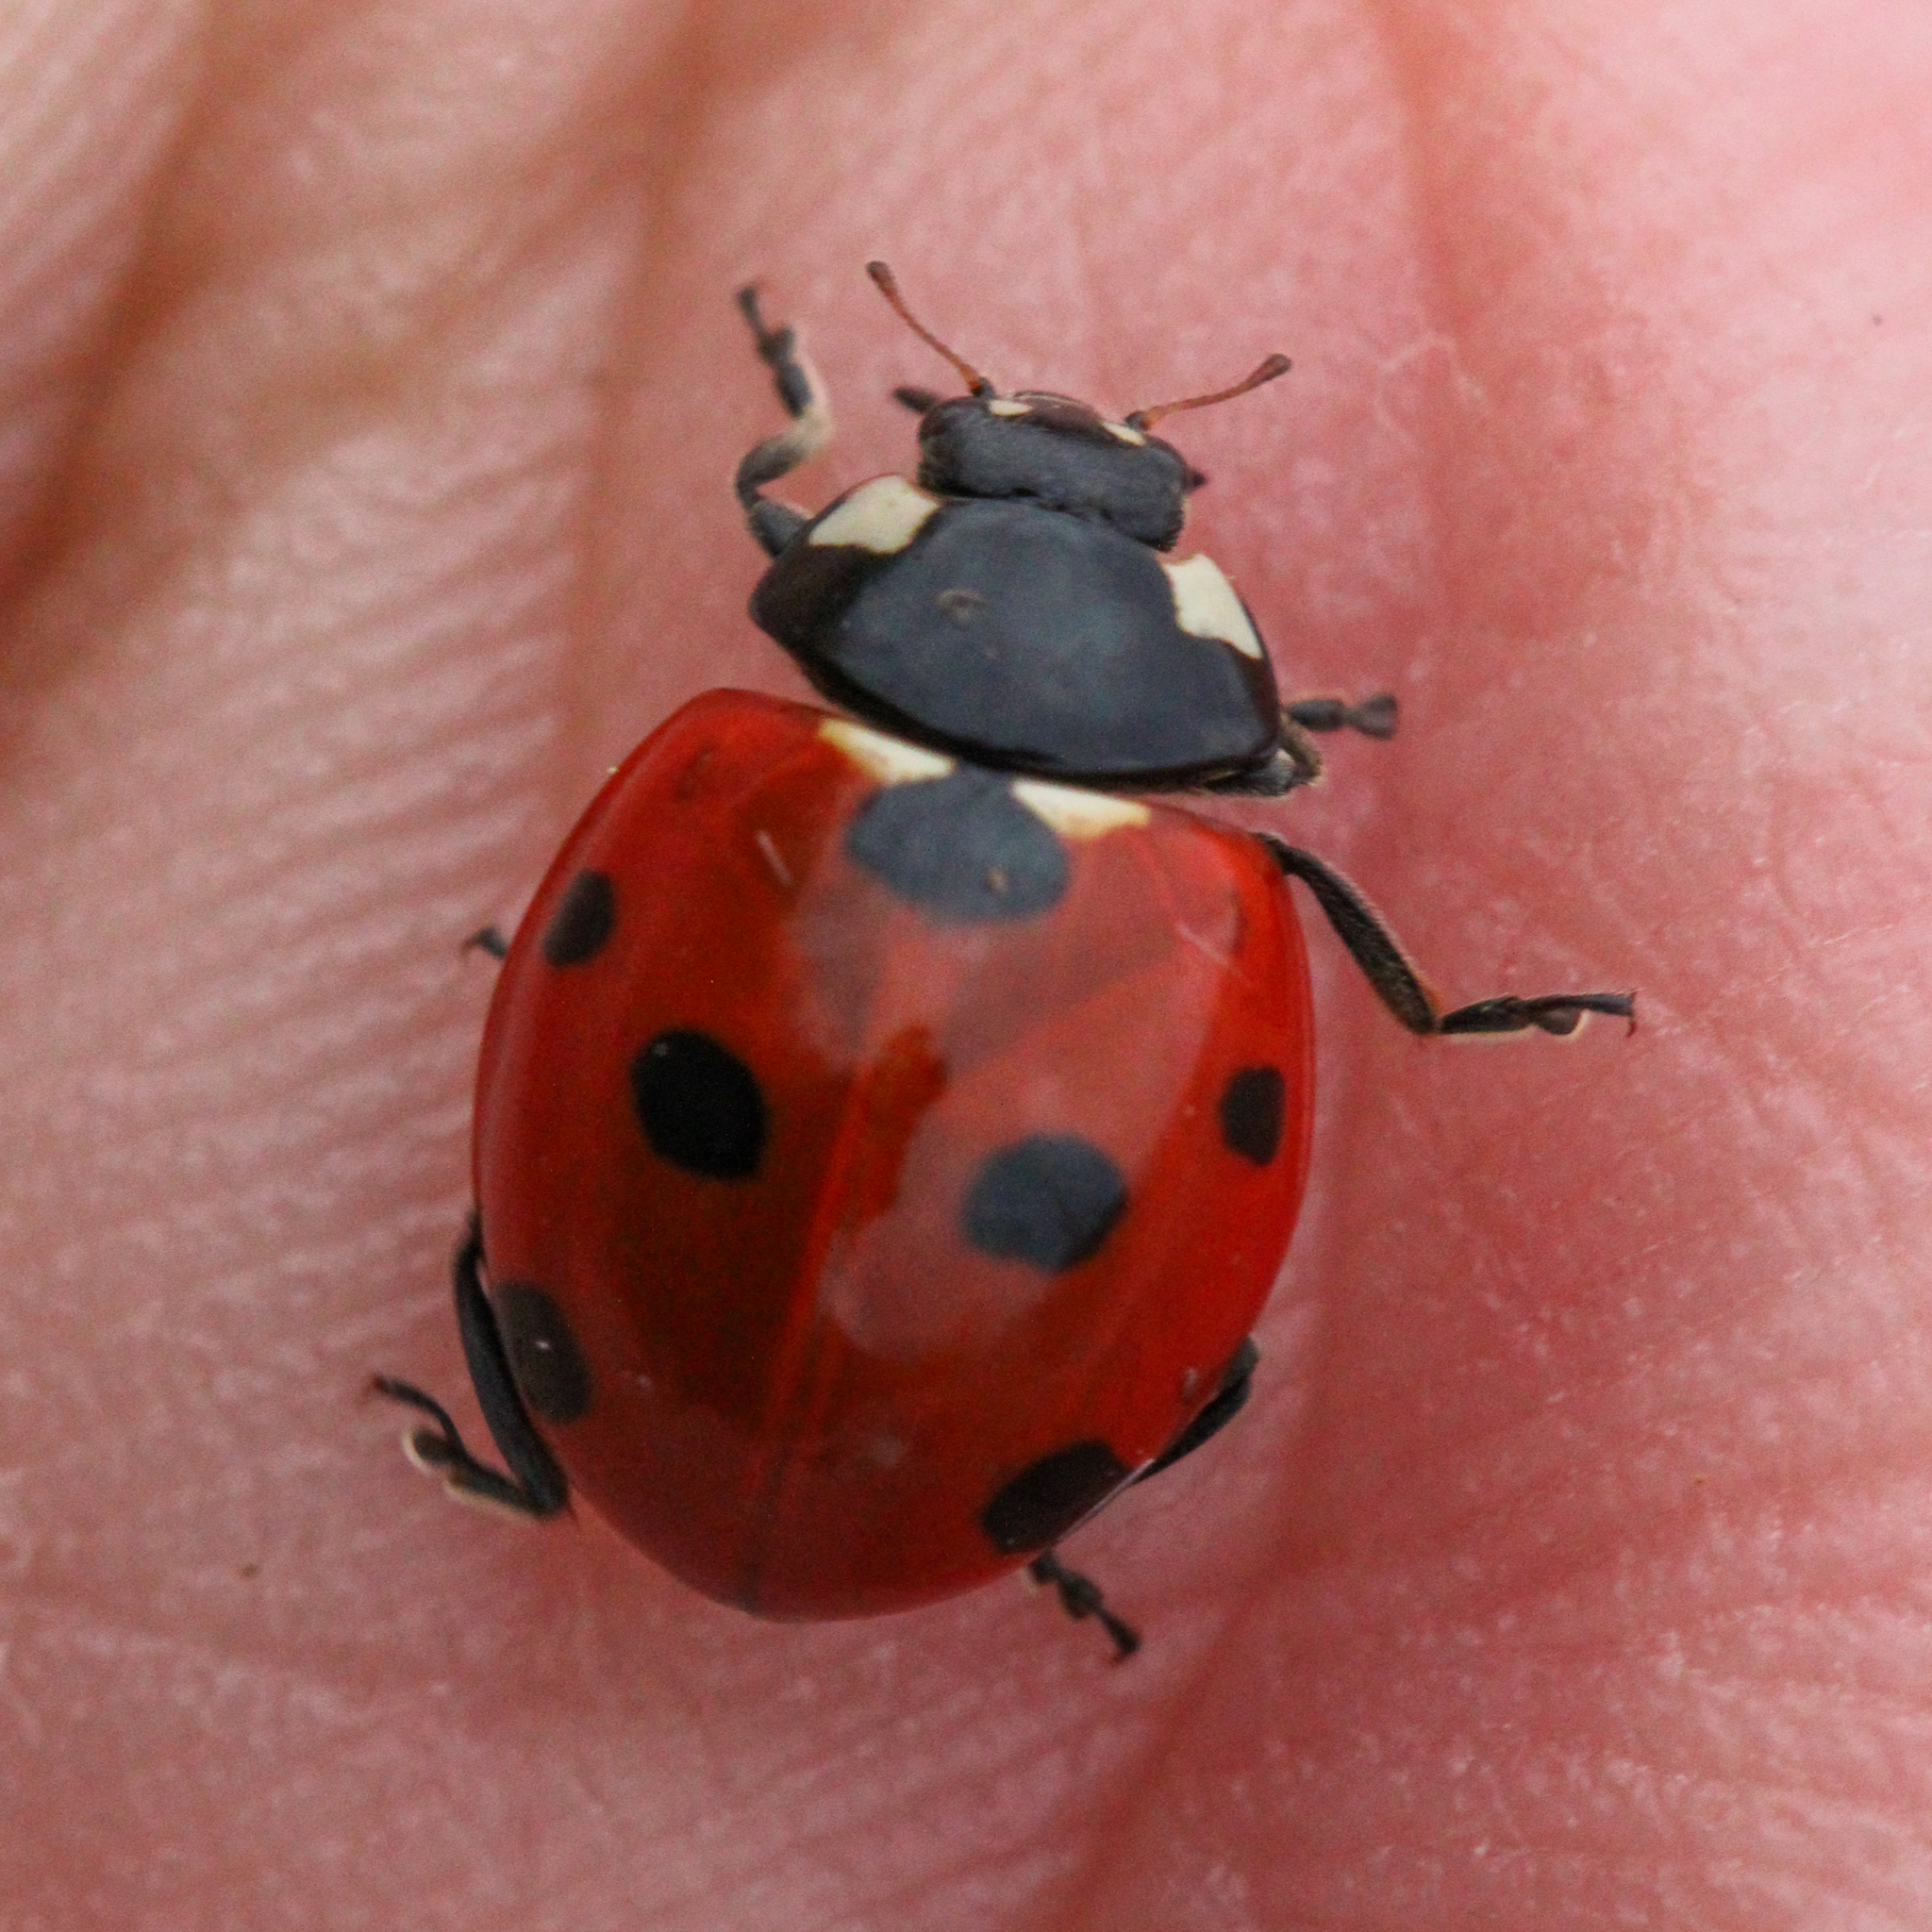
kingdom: Animalia
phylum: Arthropoda
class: Insecta
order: Coleoptera
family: Coccinellidae
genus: Coccinella
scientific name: Coccinella septempunctata
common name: Sevenspotted lady beetle
